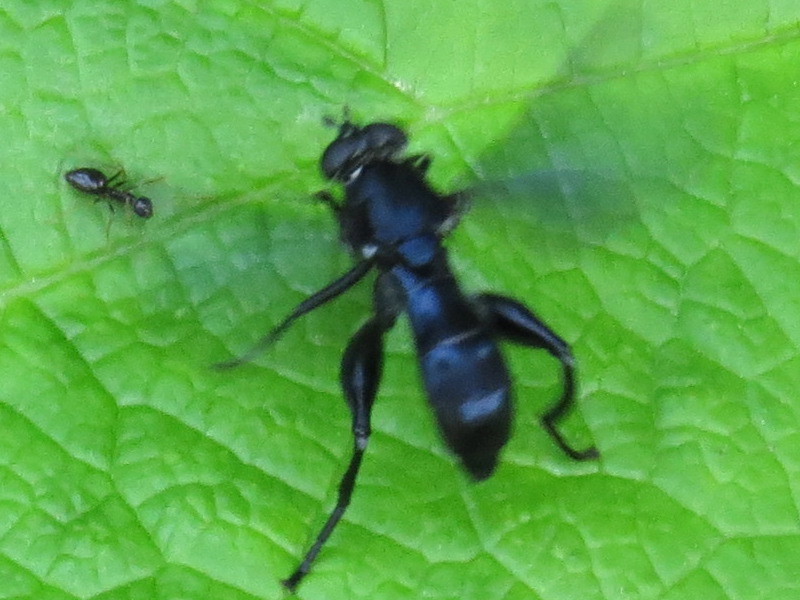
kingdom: Animalia
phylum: Arthropoda
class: Insecta
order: Diptera
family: Syrphidae
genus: Chalcosyrphus
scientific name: Chalcosyrphus chalybeus
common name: Violet leafwalker
